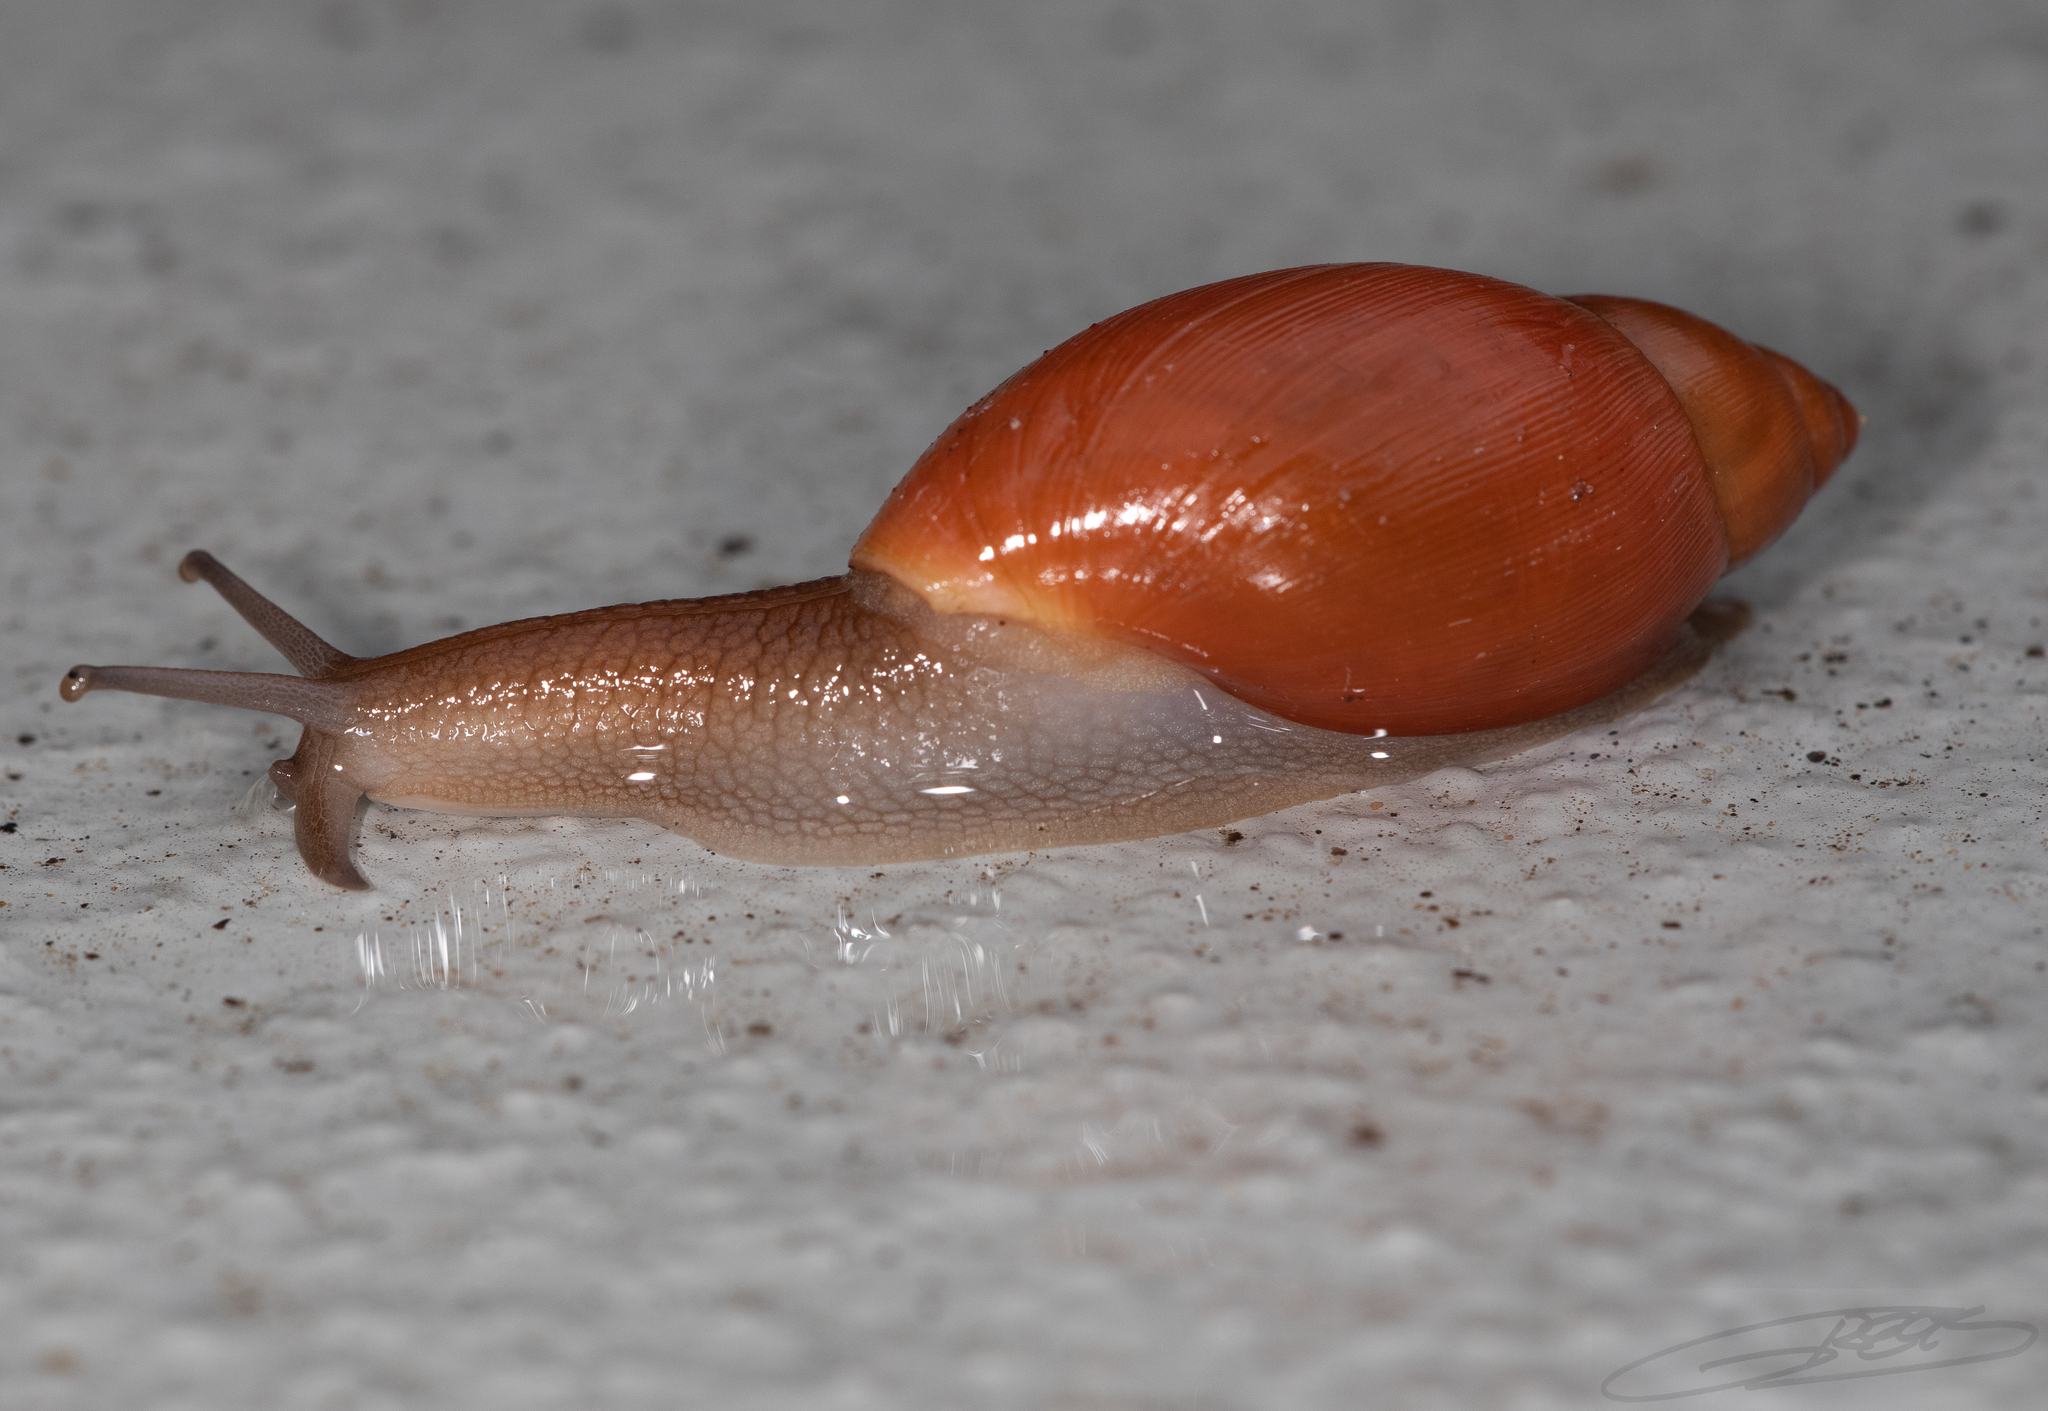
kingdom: Animalia
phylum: Mollusca
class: Gastropoda
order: Stylommatophora
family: Spiraxidae
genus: Euglandina
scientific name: Euglandina rosea
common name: Rosy wolfsnail
